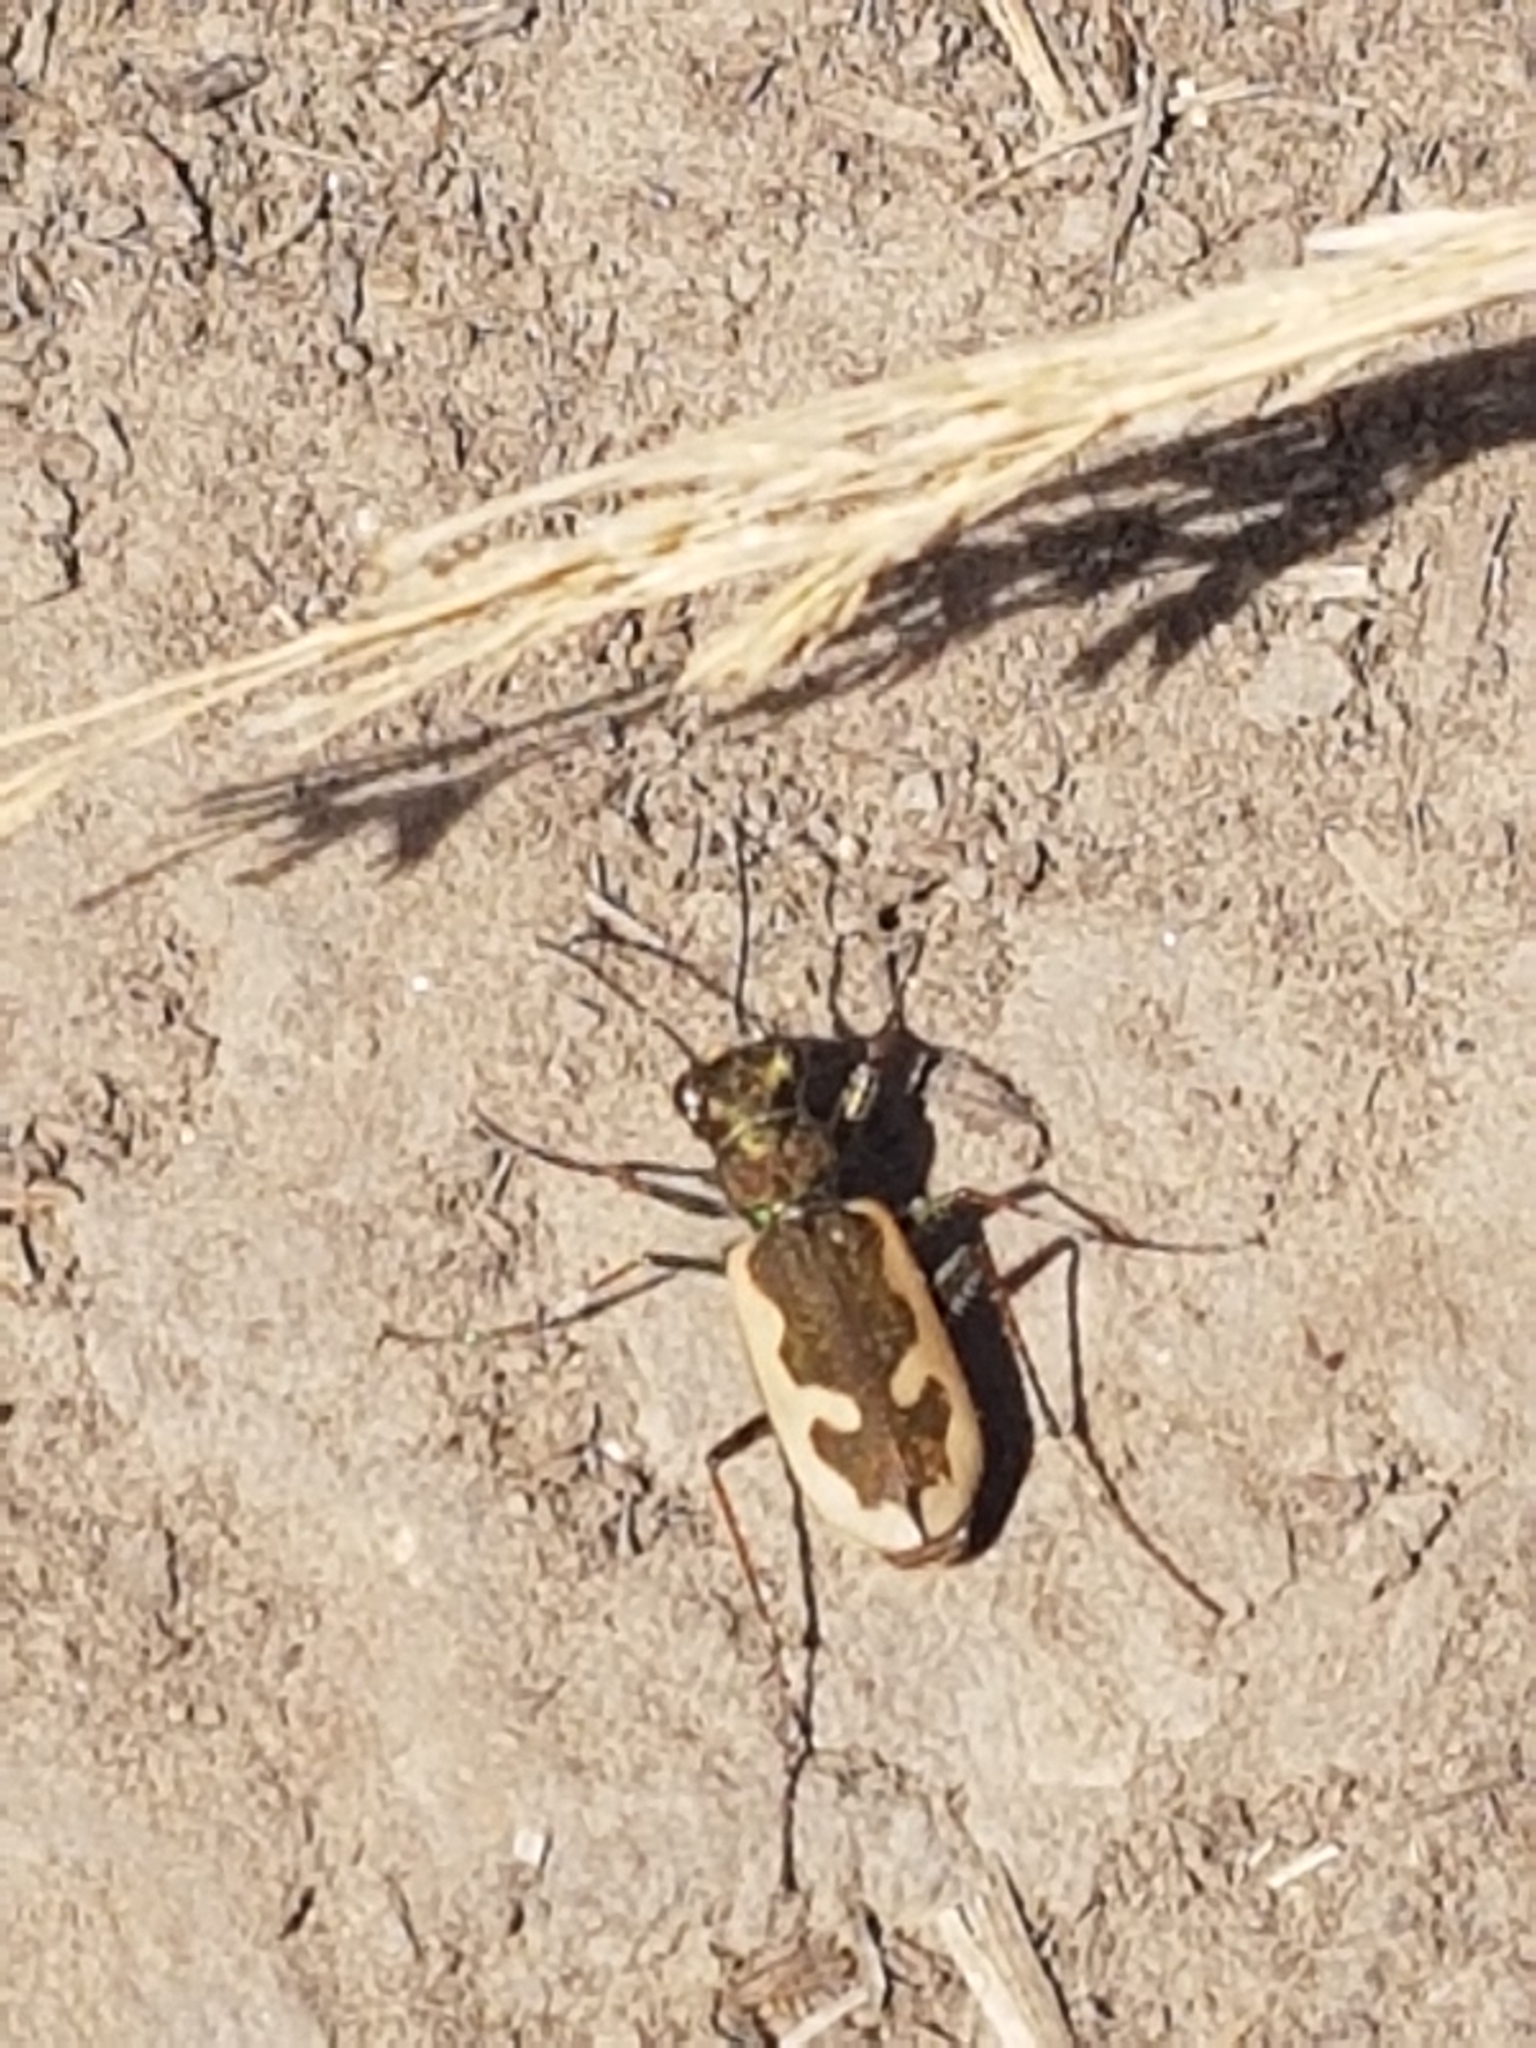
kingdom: Animalia
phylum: Arthropoda
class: Insecta
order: Coleoptera
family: Carabidae
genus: Neocicindela
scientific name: Neocicindela latecincta
